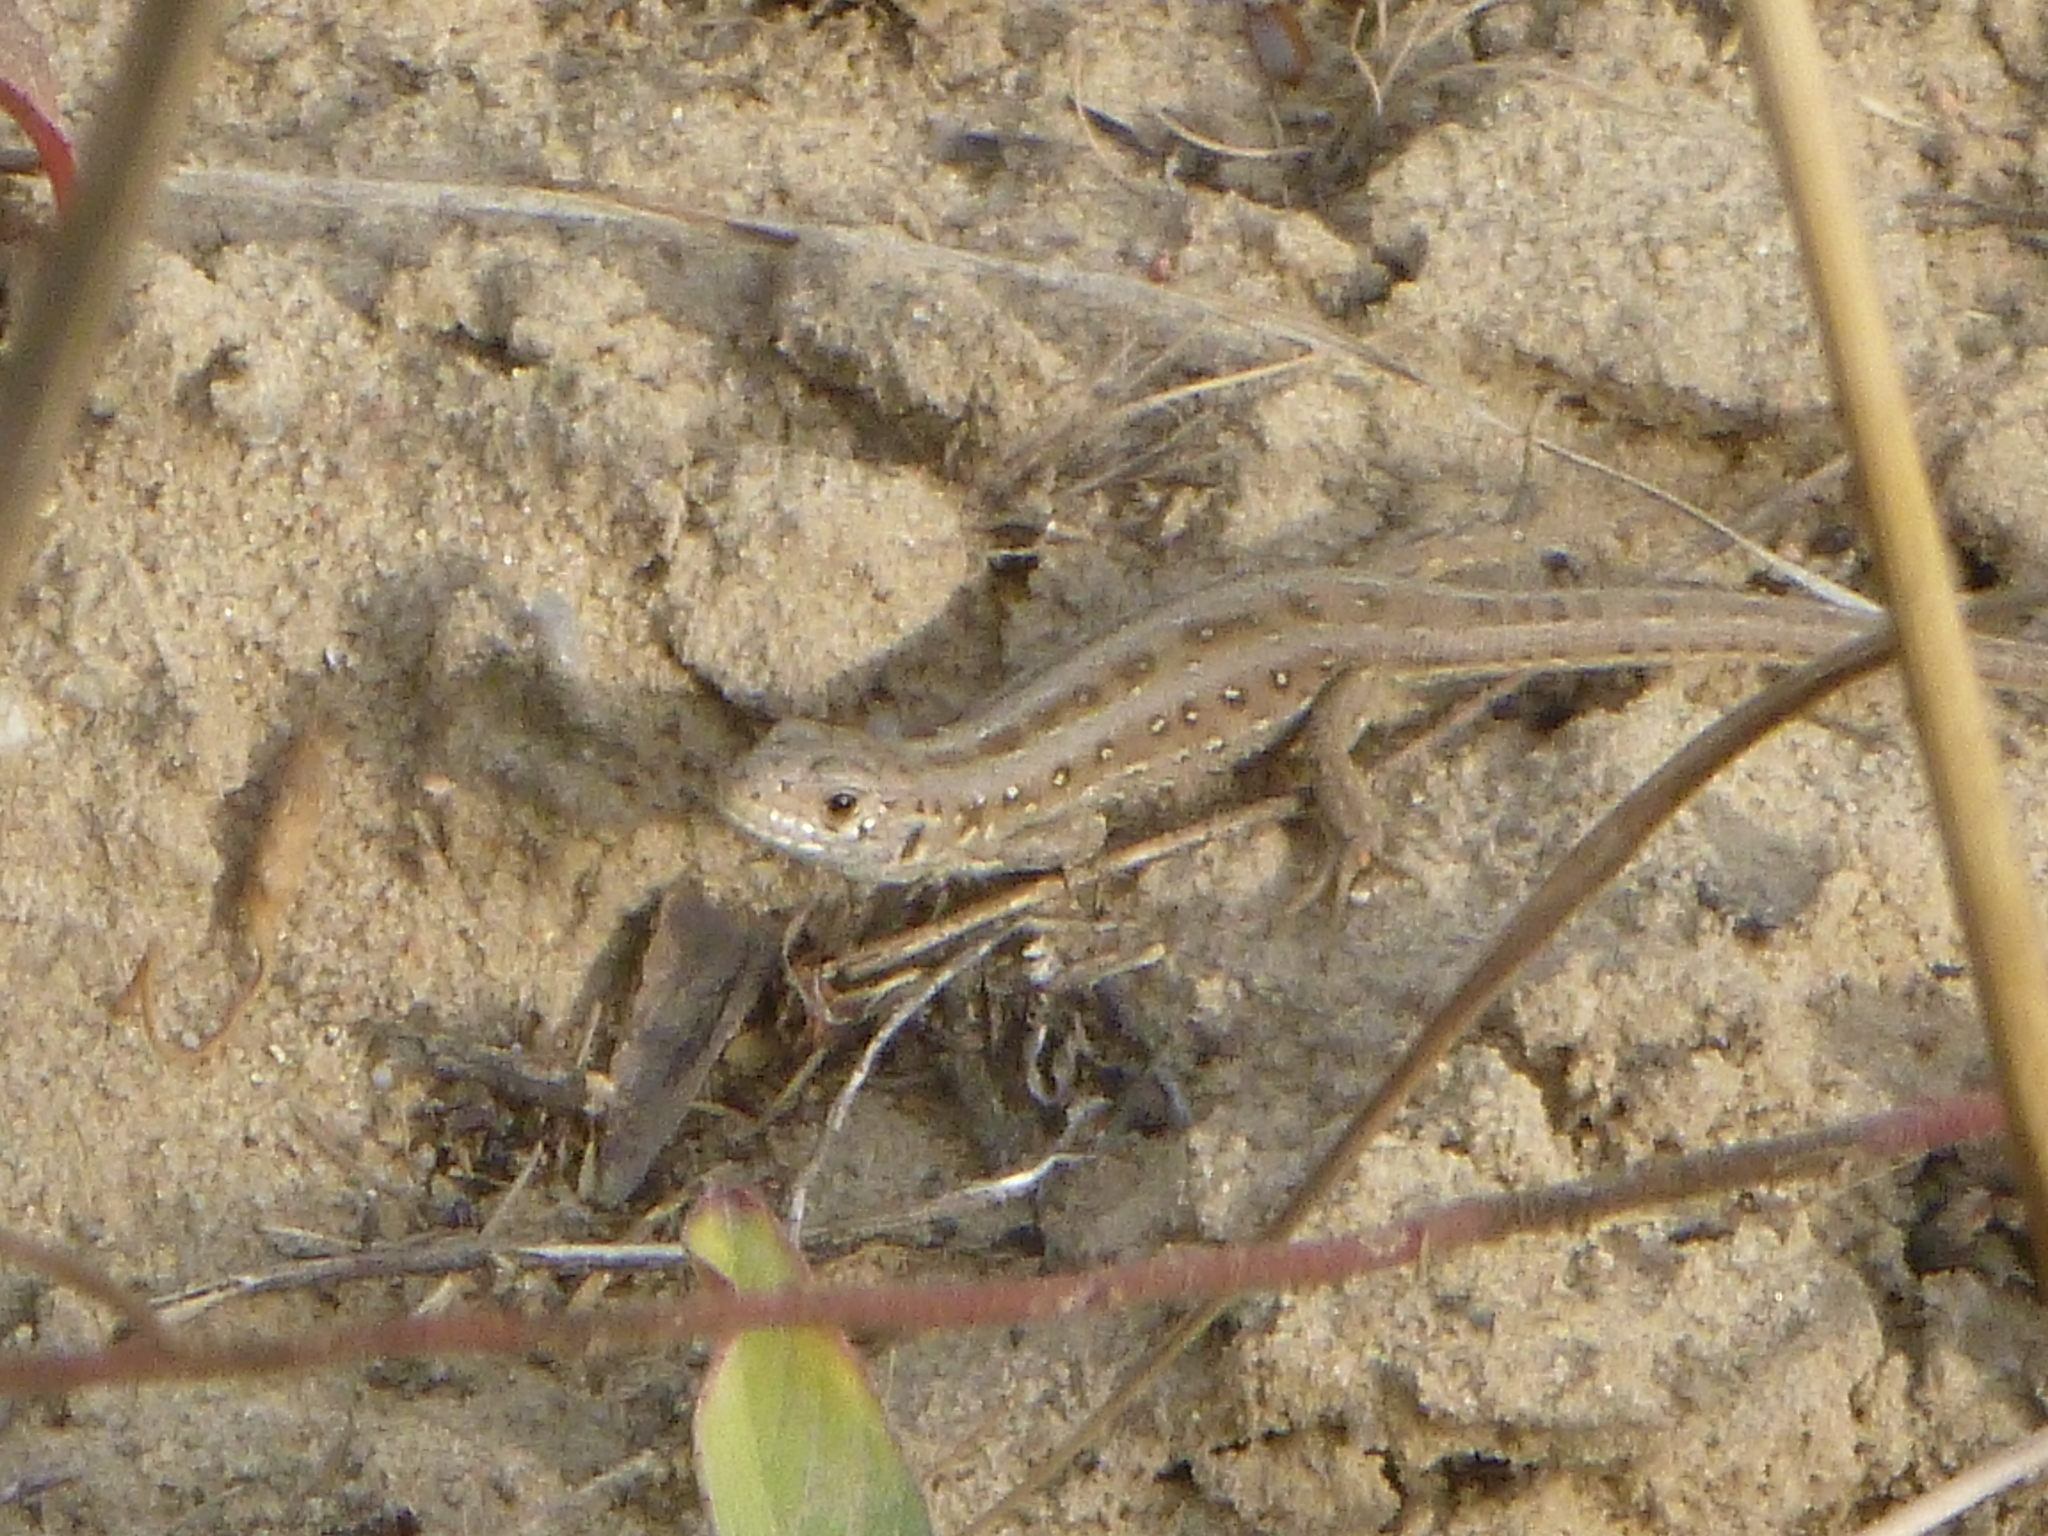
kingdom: Animalia
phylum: Chordata
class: Squamata
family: Lacertidae
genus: Lacerta
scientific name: Lacerta agilis
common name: Sand lizard
